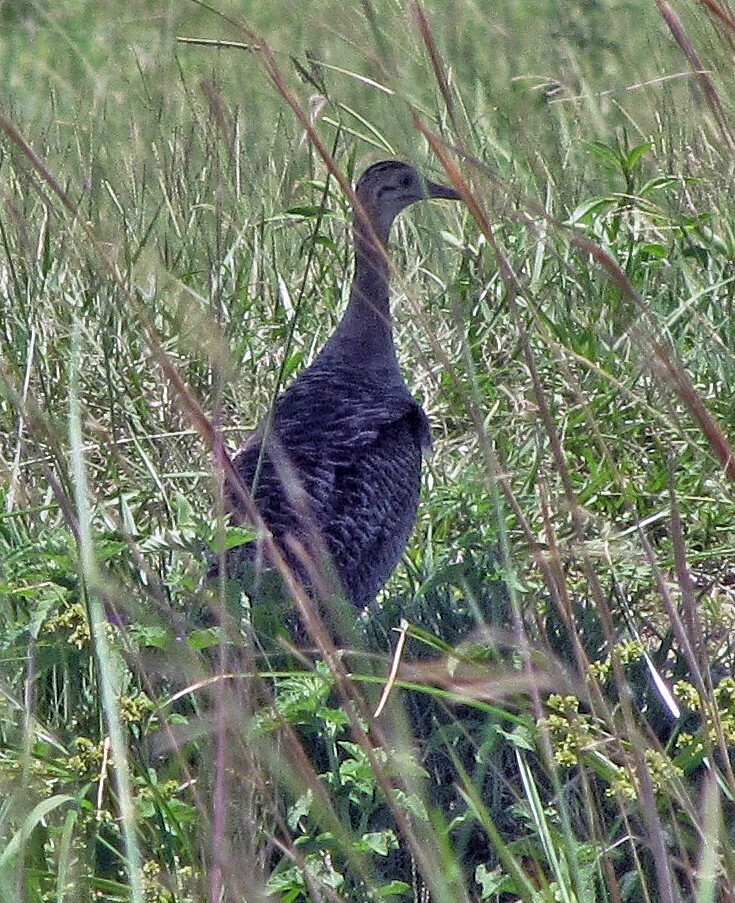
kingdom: Animalia
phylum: Chordata
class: Aves
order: Tinamiformes
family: Tinamidae
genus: Rhynchotus
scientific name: Rhynchotus rufescens
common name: Red-winged tinamou
